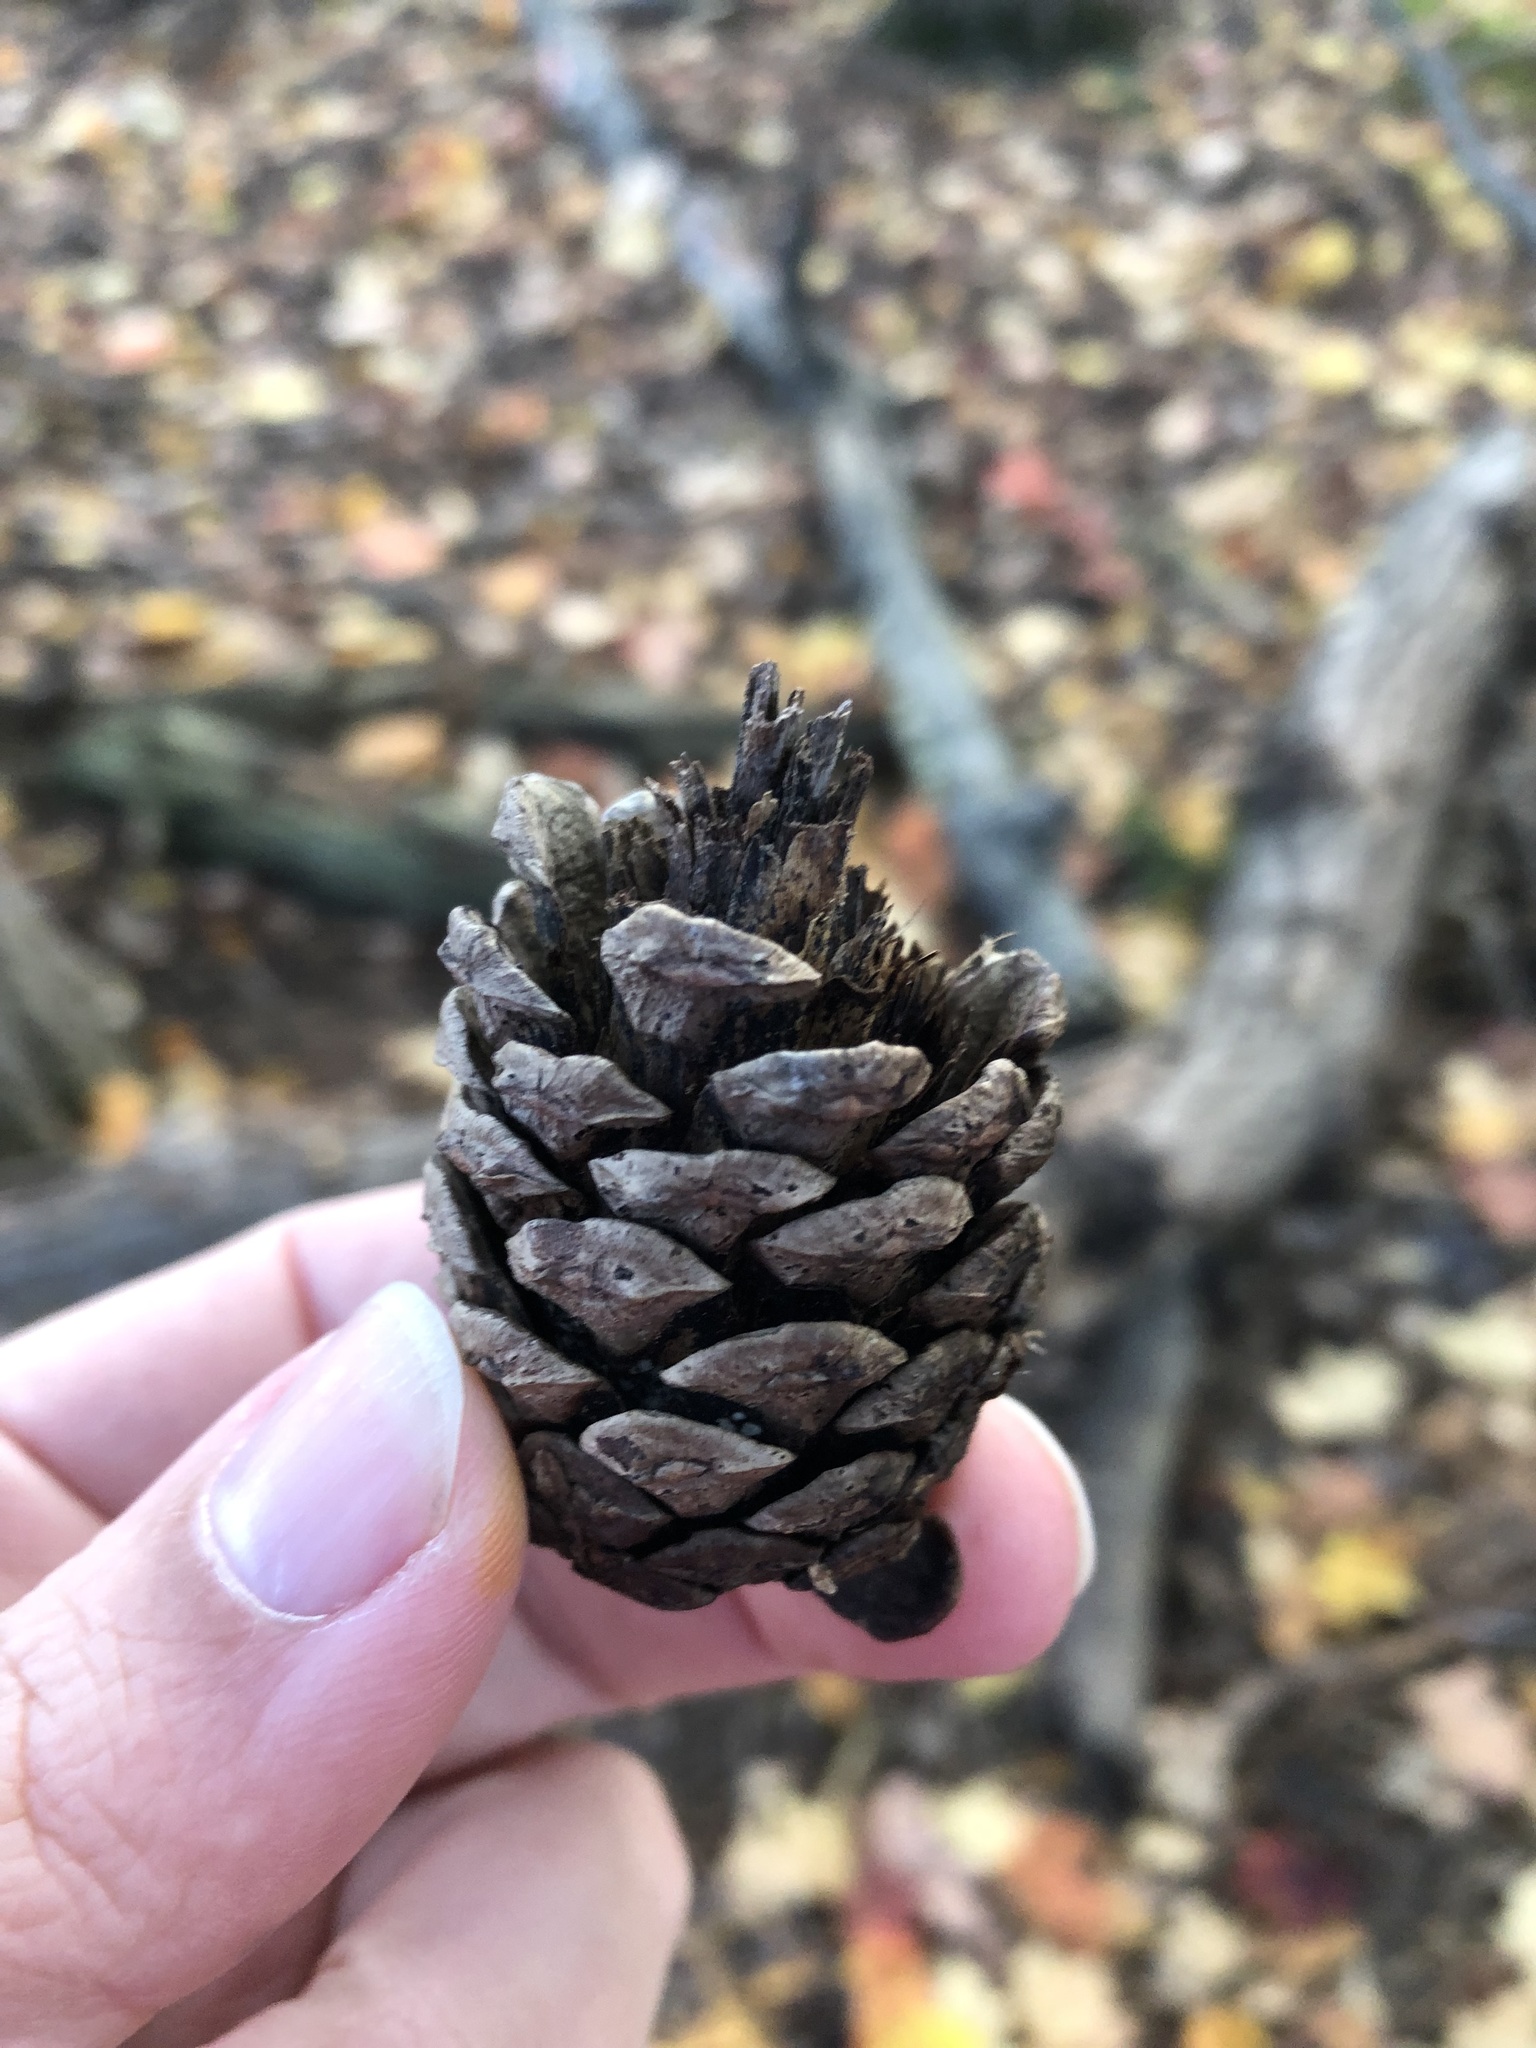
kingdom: Plantae
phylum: Tracheophyta
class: Pinopsida
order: Pinales
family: Pinaceae
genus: Pinus
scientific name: Pinus resinosa
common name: Norway pine
